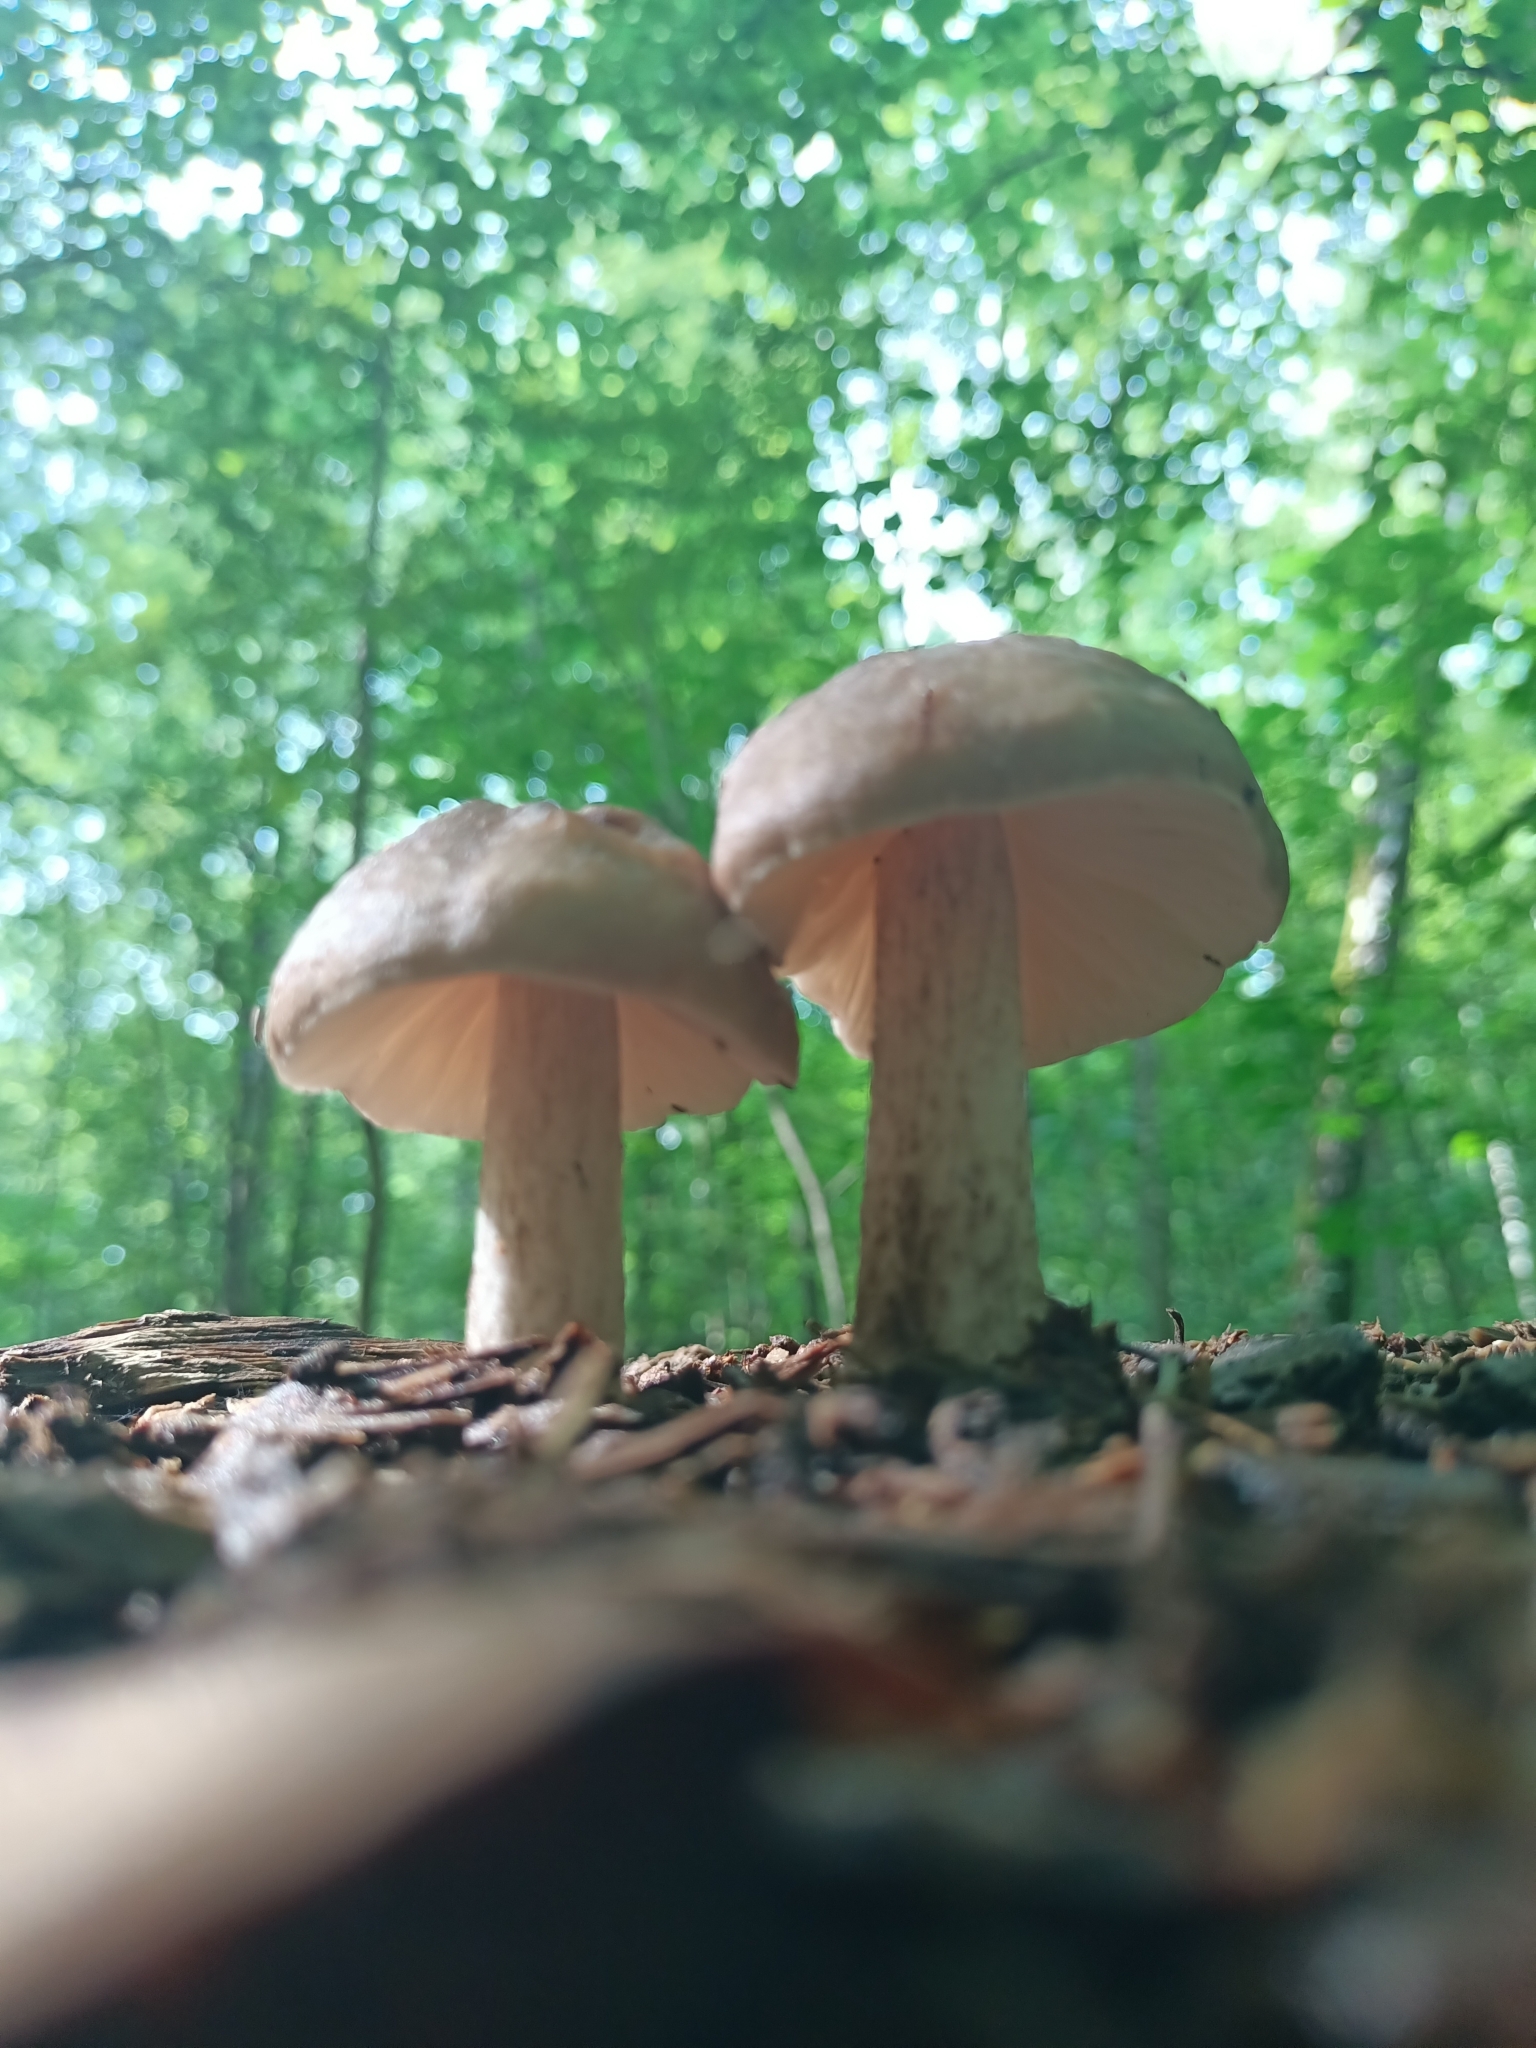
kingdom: Fungi
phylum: Basidiomycota
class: Agaricomycetes
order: Agaricales
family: Pluteaceae
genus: Pluteus
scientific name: Pluteus cervinus
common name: Deer shield
